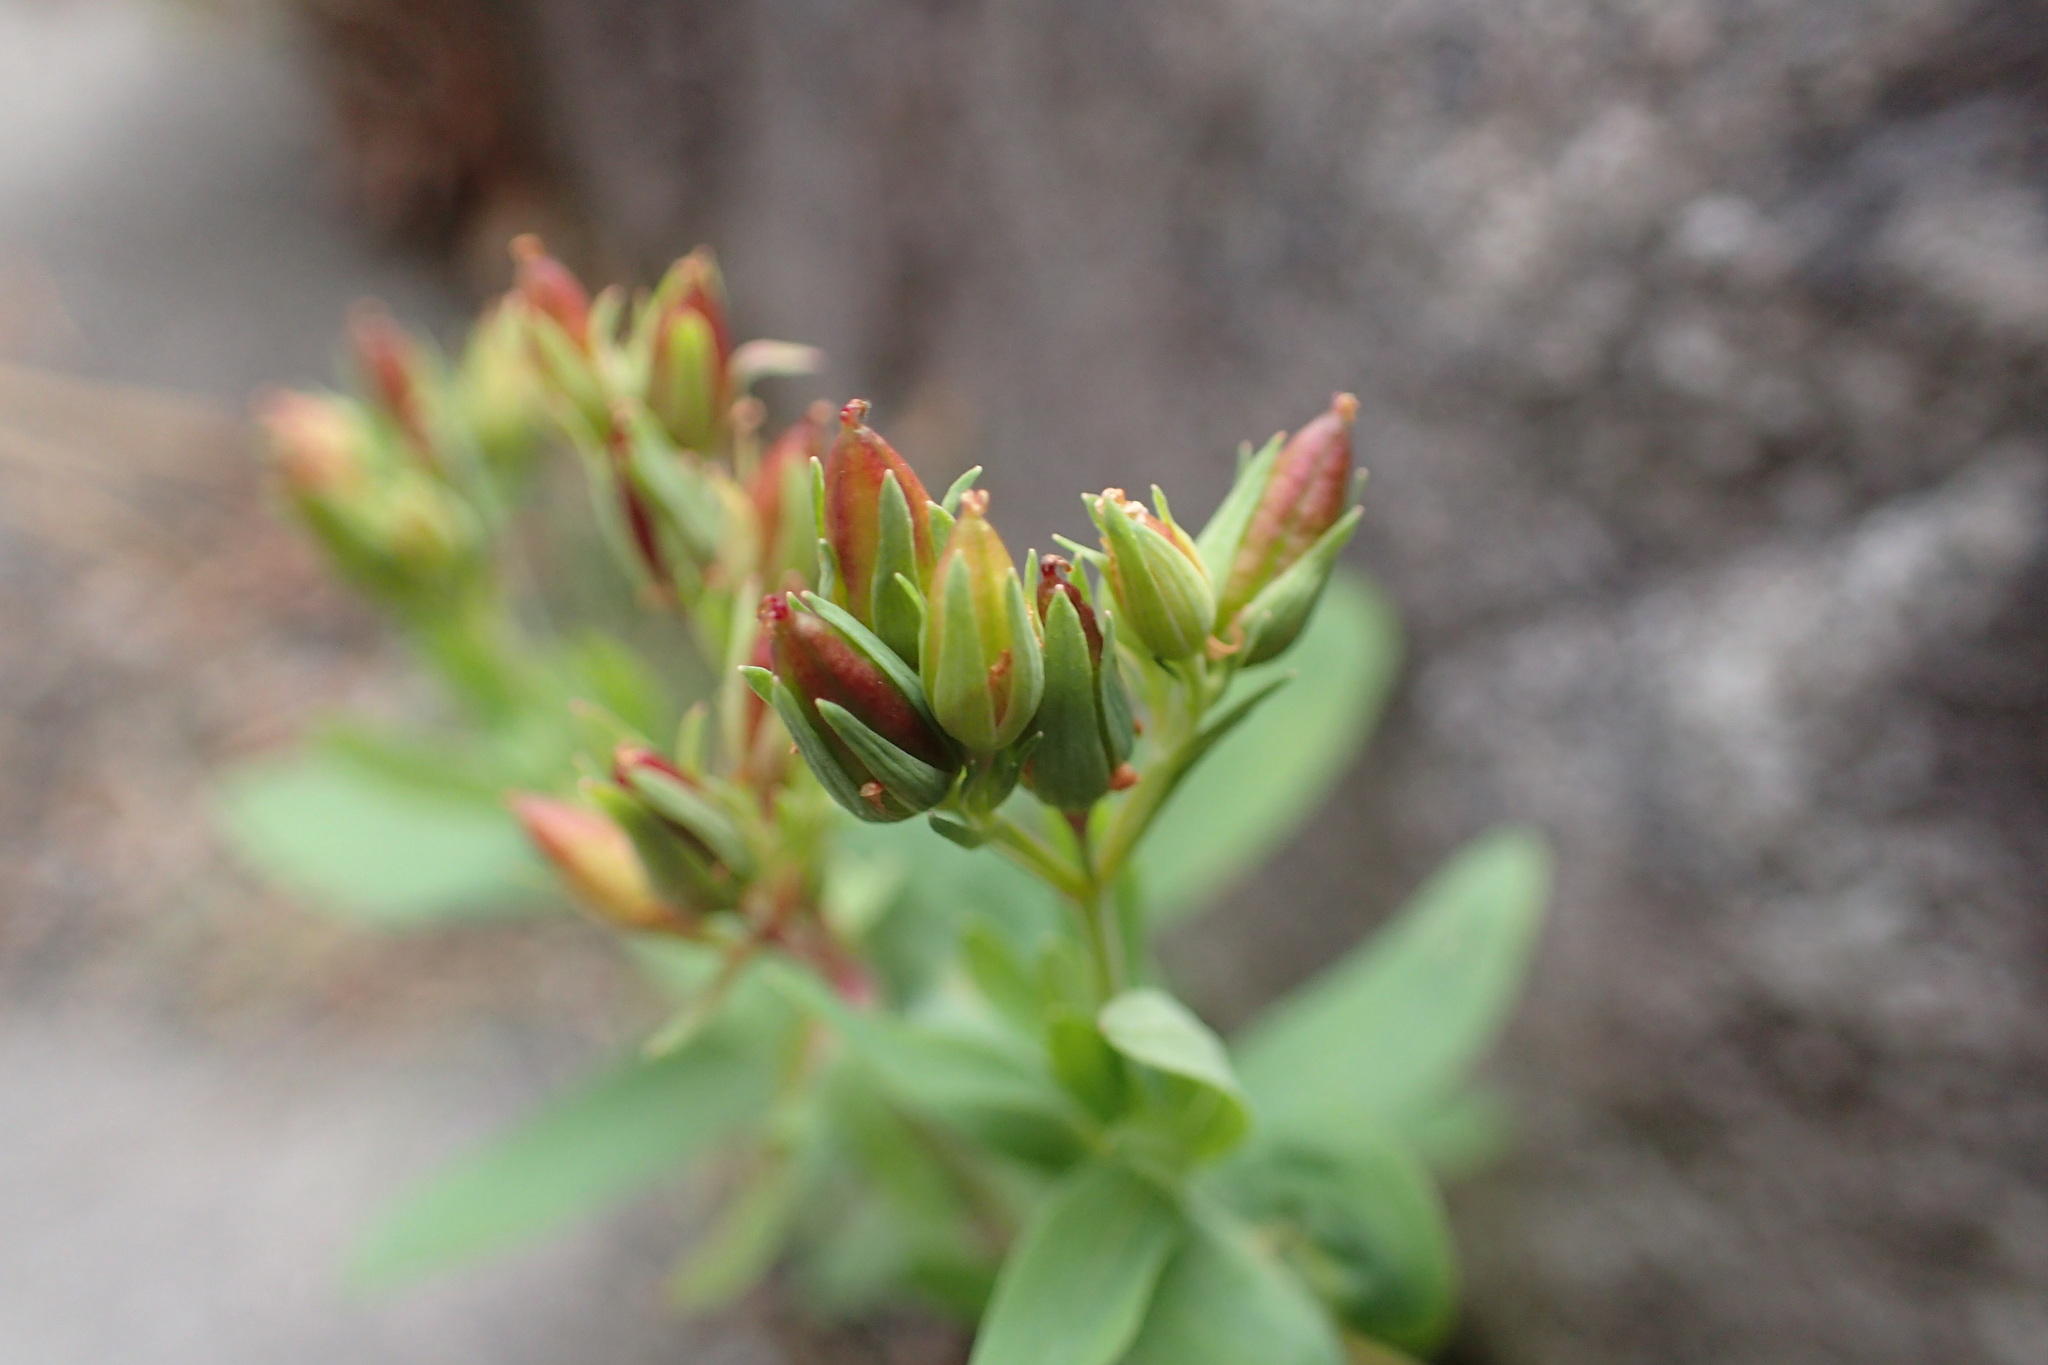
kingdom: Plantae
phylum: Tracheophyta
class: Magnoliopsida
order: Malpighiales
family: Hypericaceae
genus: Hypericum
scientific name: Hypericum majus
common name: Greater canadian st. john's-wort
